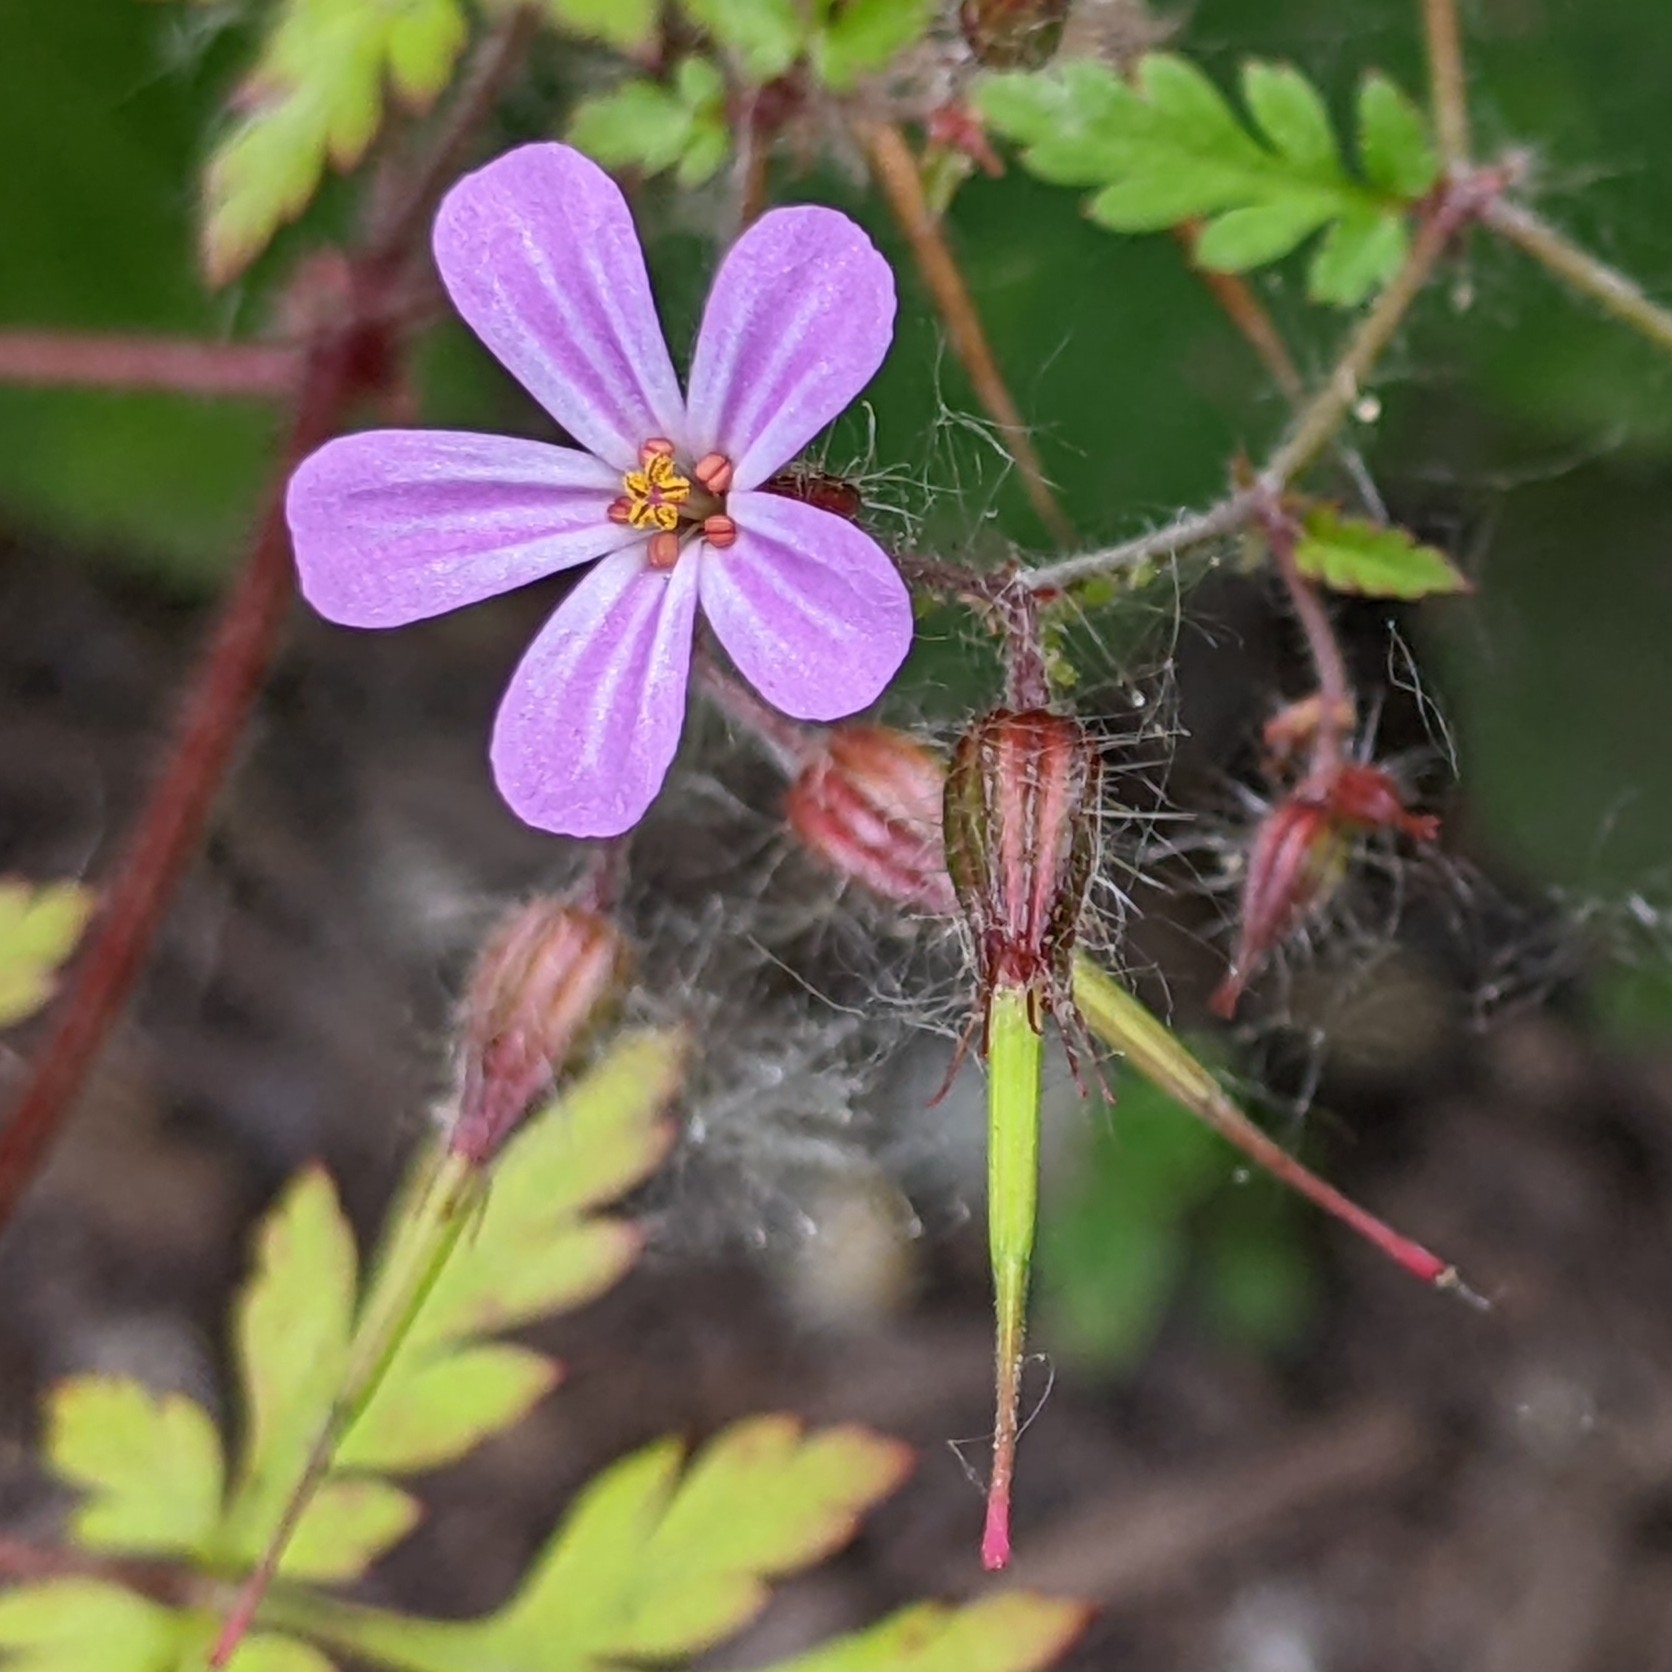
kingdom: Plantae
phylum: Tracheophyta
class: Magnoliopsida
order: Geraniales
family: Geraniaceae
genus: Geranium
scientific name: Geranium robertianum
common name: Herb-robert
